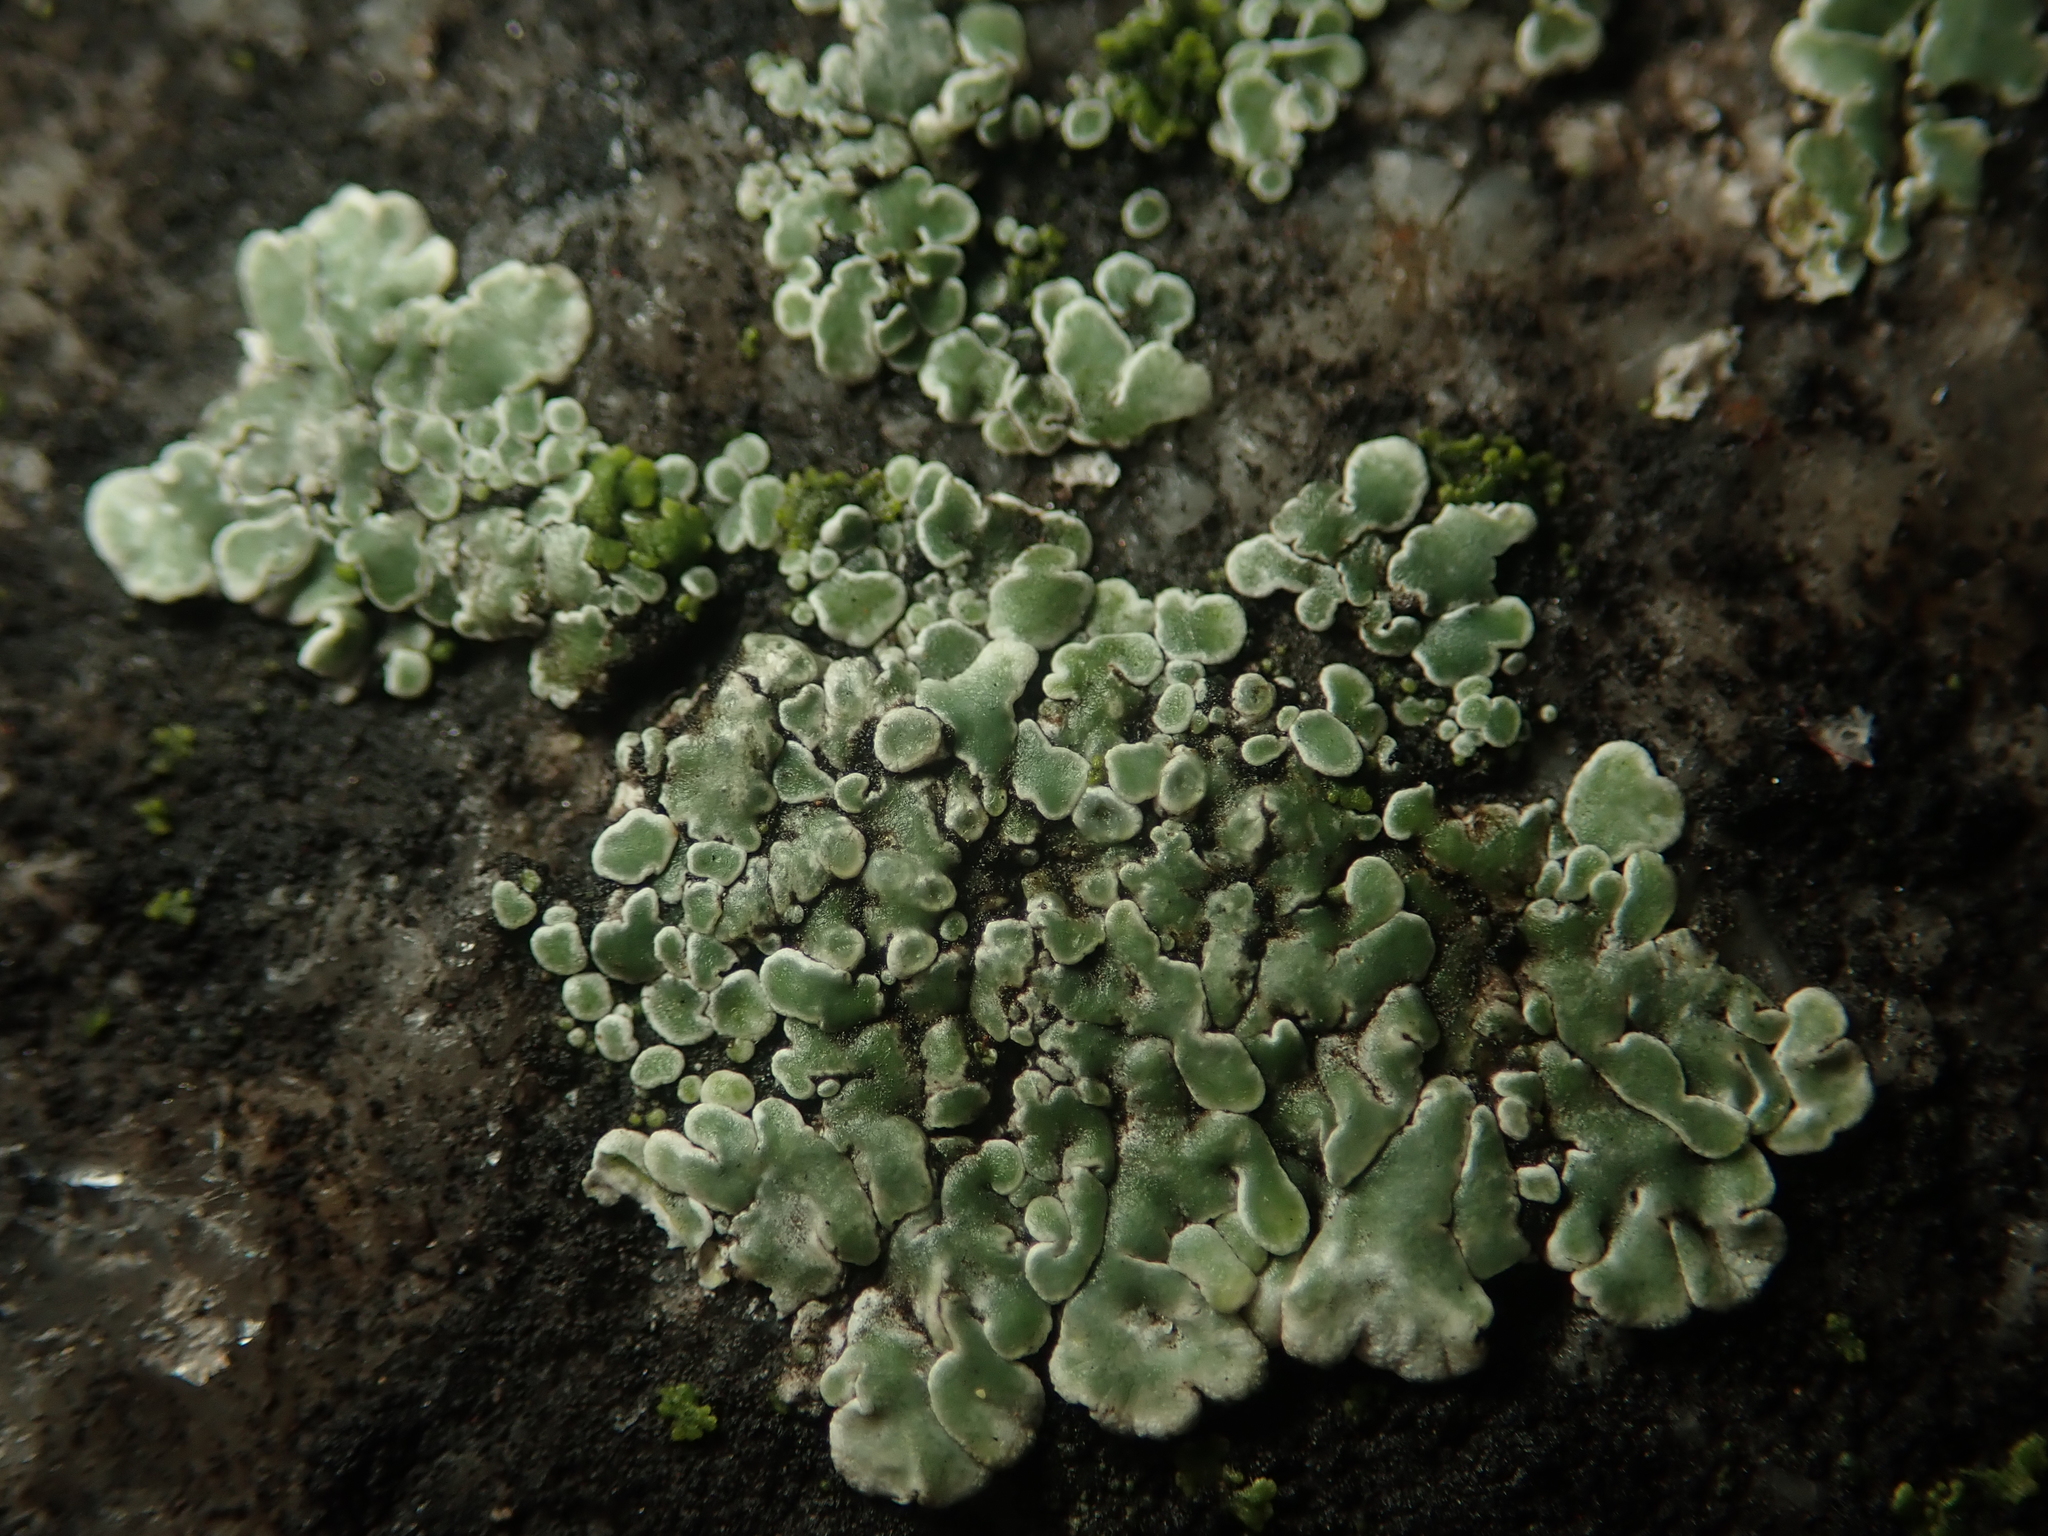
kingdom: Fungi
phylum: Ascomycota
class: Lecanoromycetes
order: Lecanorales
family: Lecanoraceae
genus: Protoparmeliopsis
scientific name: Protoparmeliopsis muralis
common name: Stonewall rim lichen
